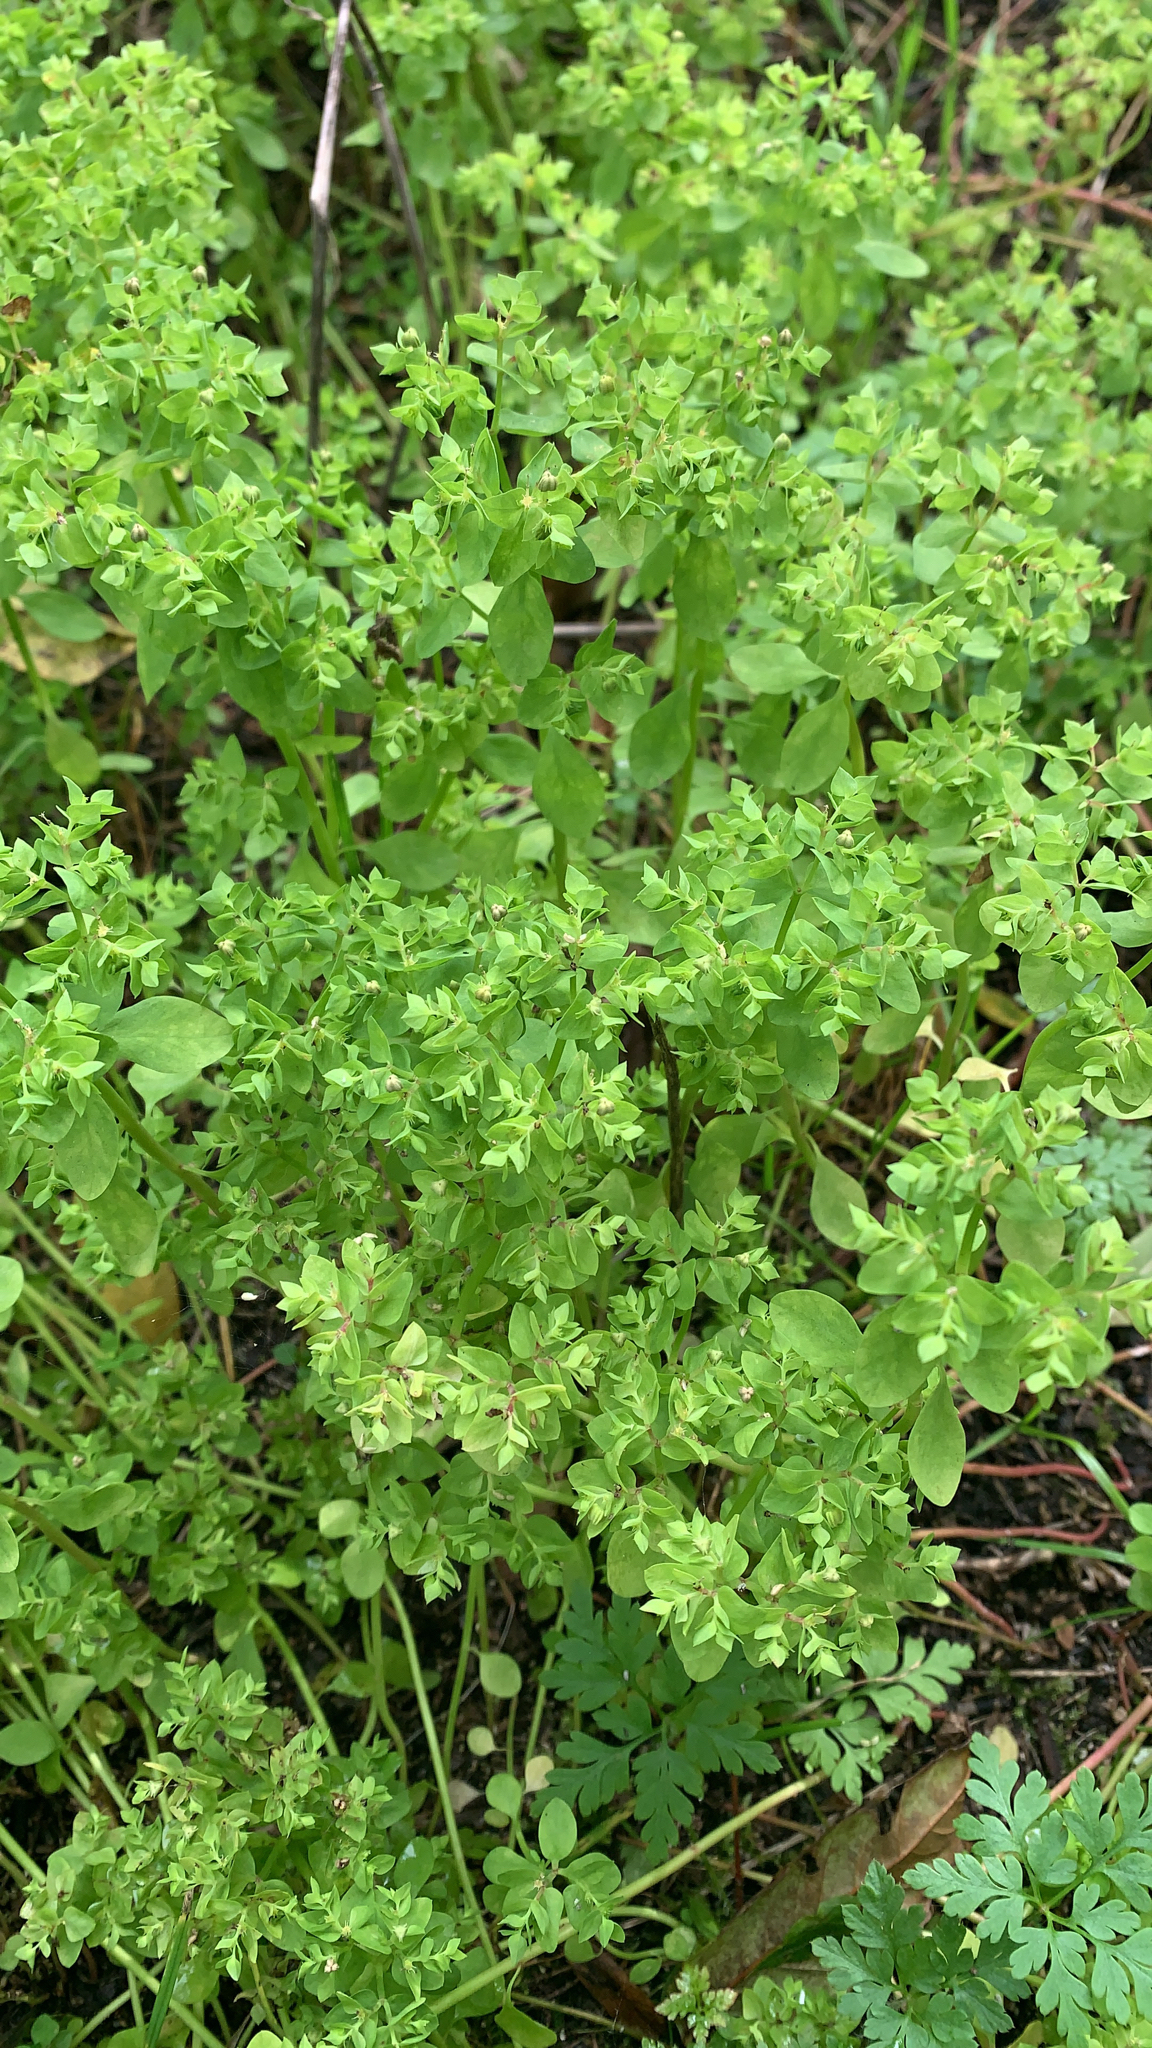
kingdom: Plantae
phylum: Tracheophyta
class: Magnoliopsida
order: Malpighiales
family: Euphorbiaceae
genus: Euphorbia
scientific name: Euphorbia peplus
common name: Petty spurge
